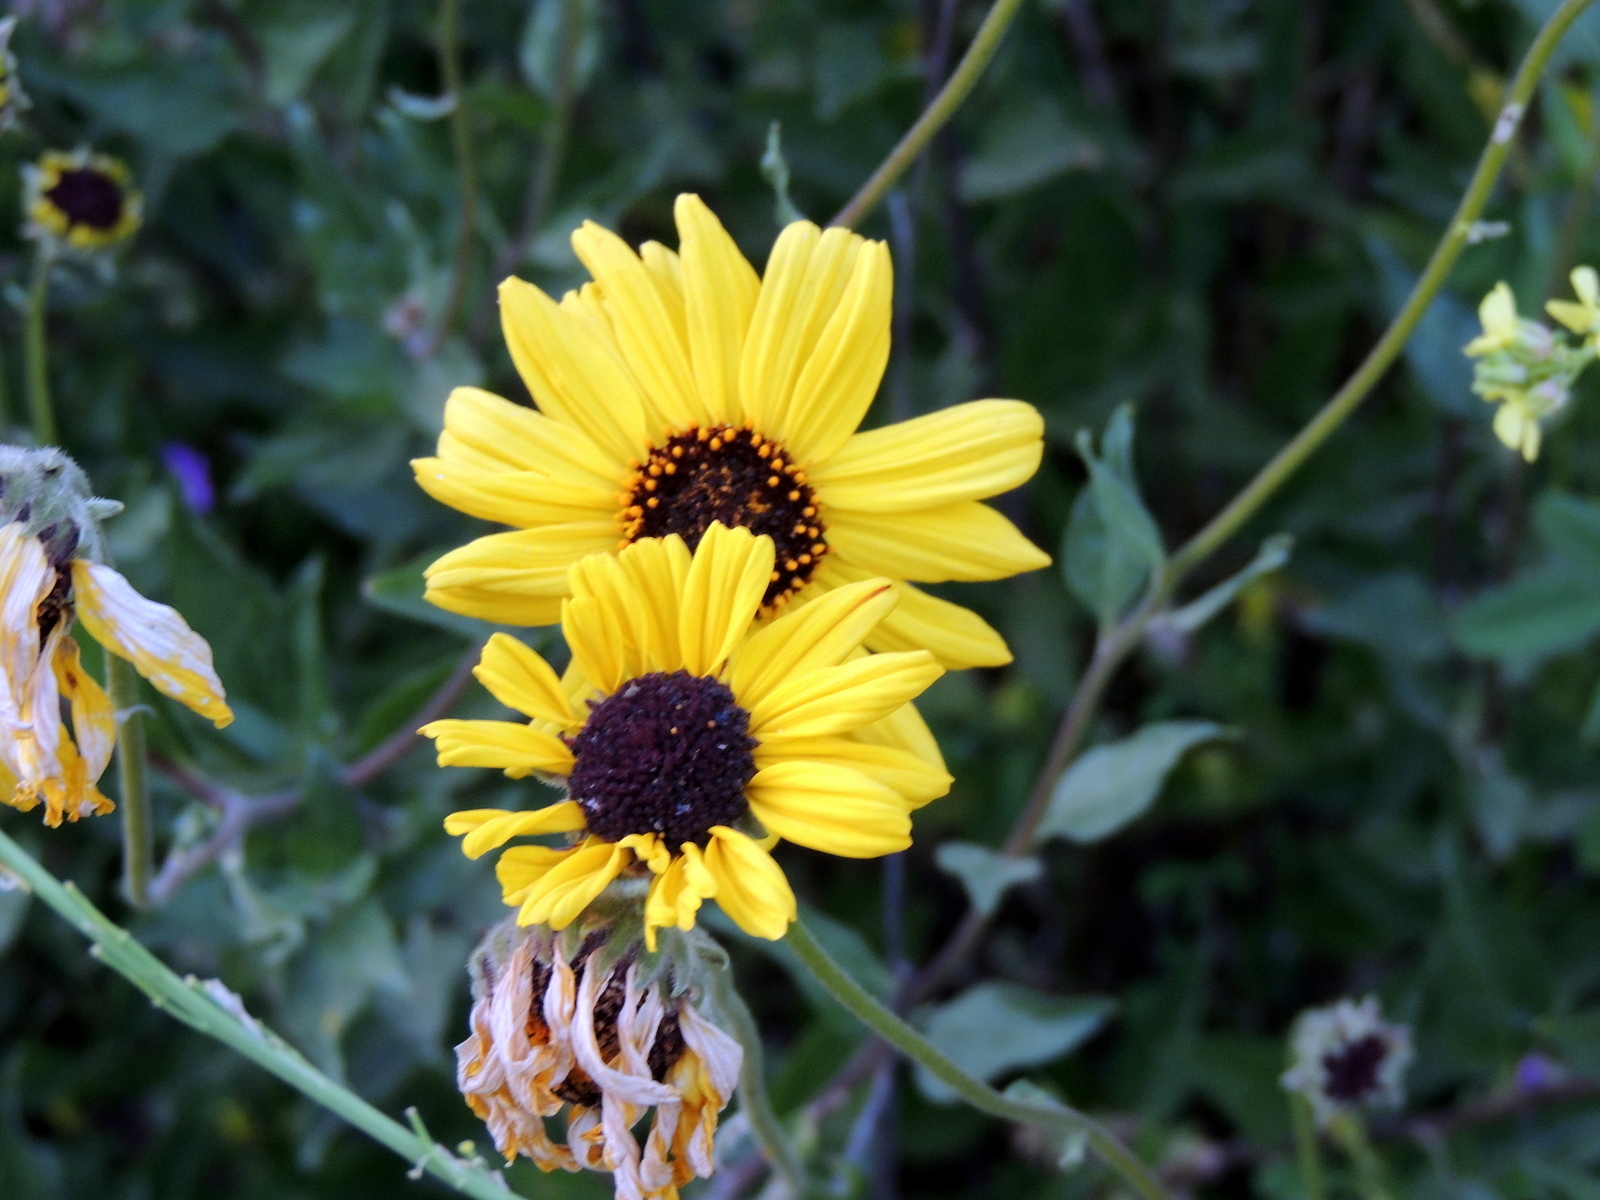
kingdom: Plantae
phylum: Tracheophyta
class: Magnoliopsida
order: Asterales
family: Asteraceae
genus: Encelia
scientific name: Encelia californica
